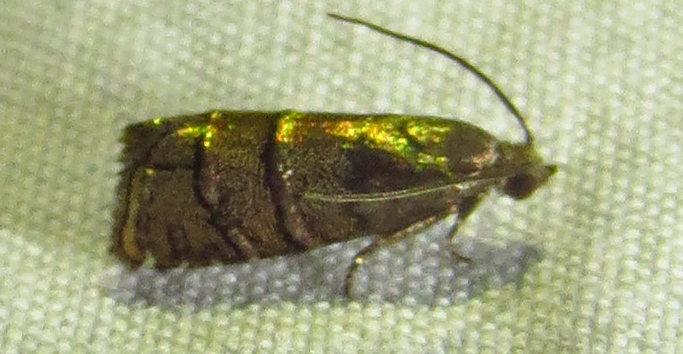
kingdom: Animalia
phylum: Arthropoda
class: Insecta
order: Lepidoptera
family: Tortricidae
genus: Cydia
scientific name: Cydia toreuta
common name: Eastern pine seedworm moth
